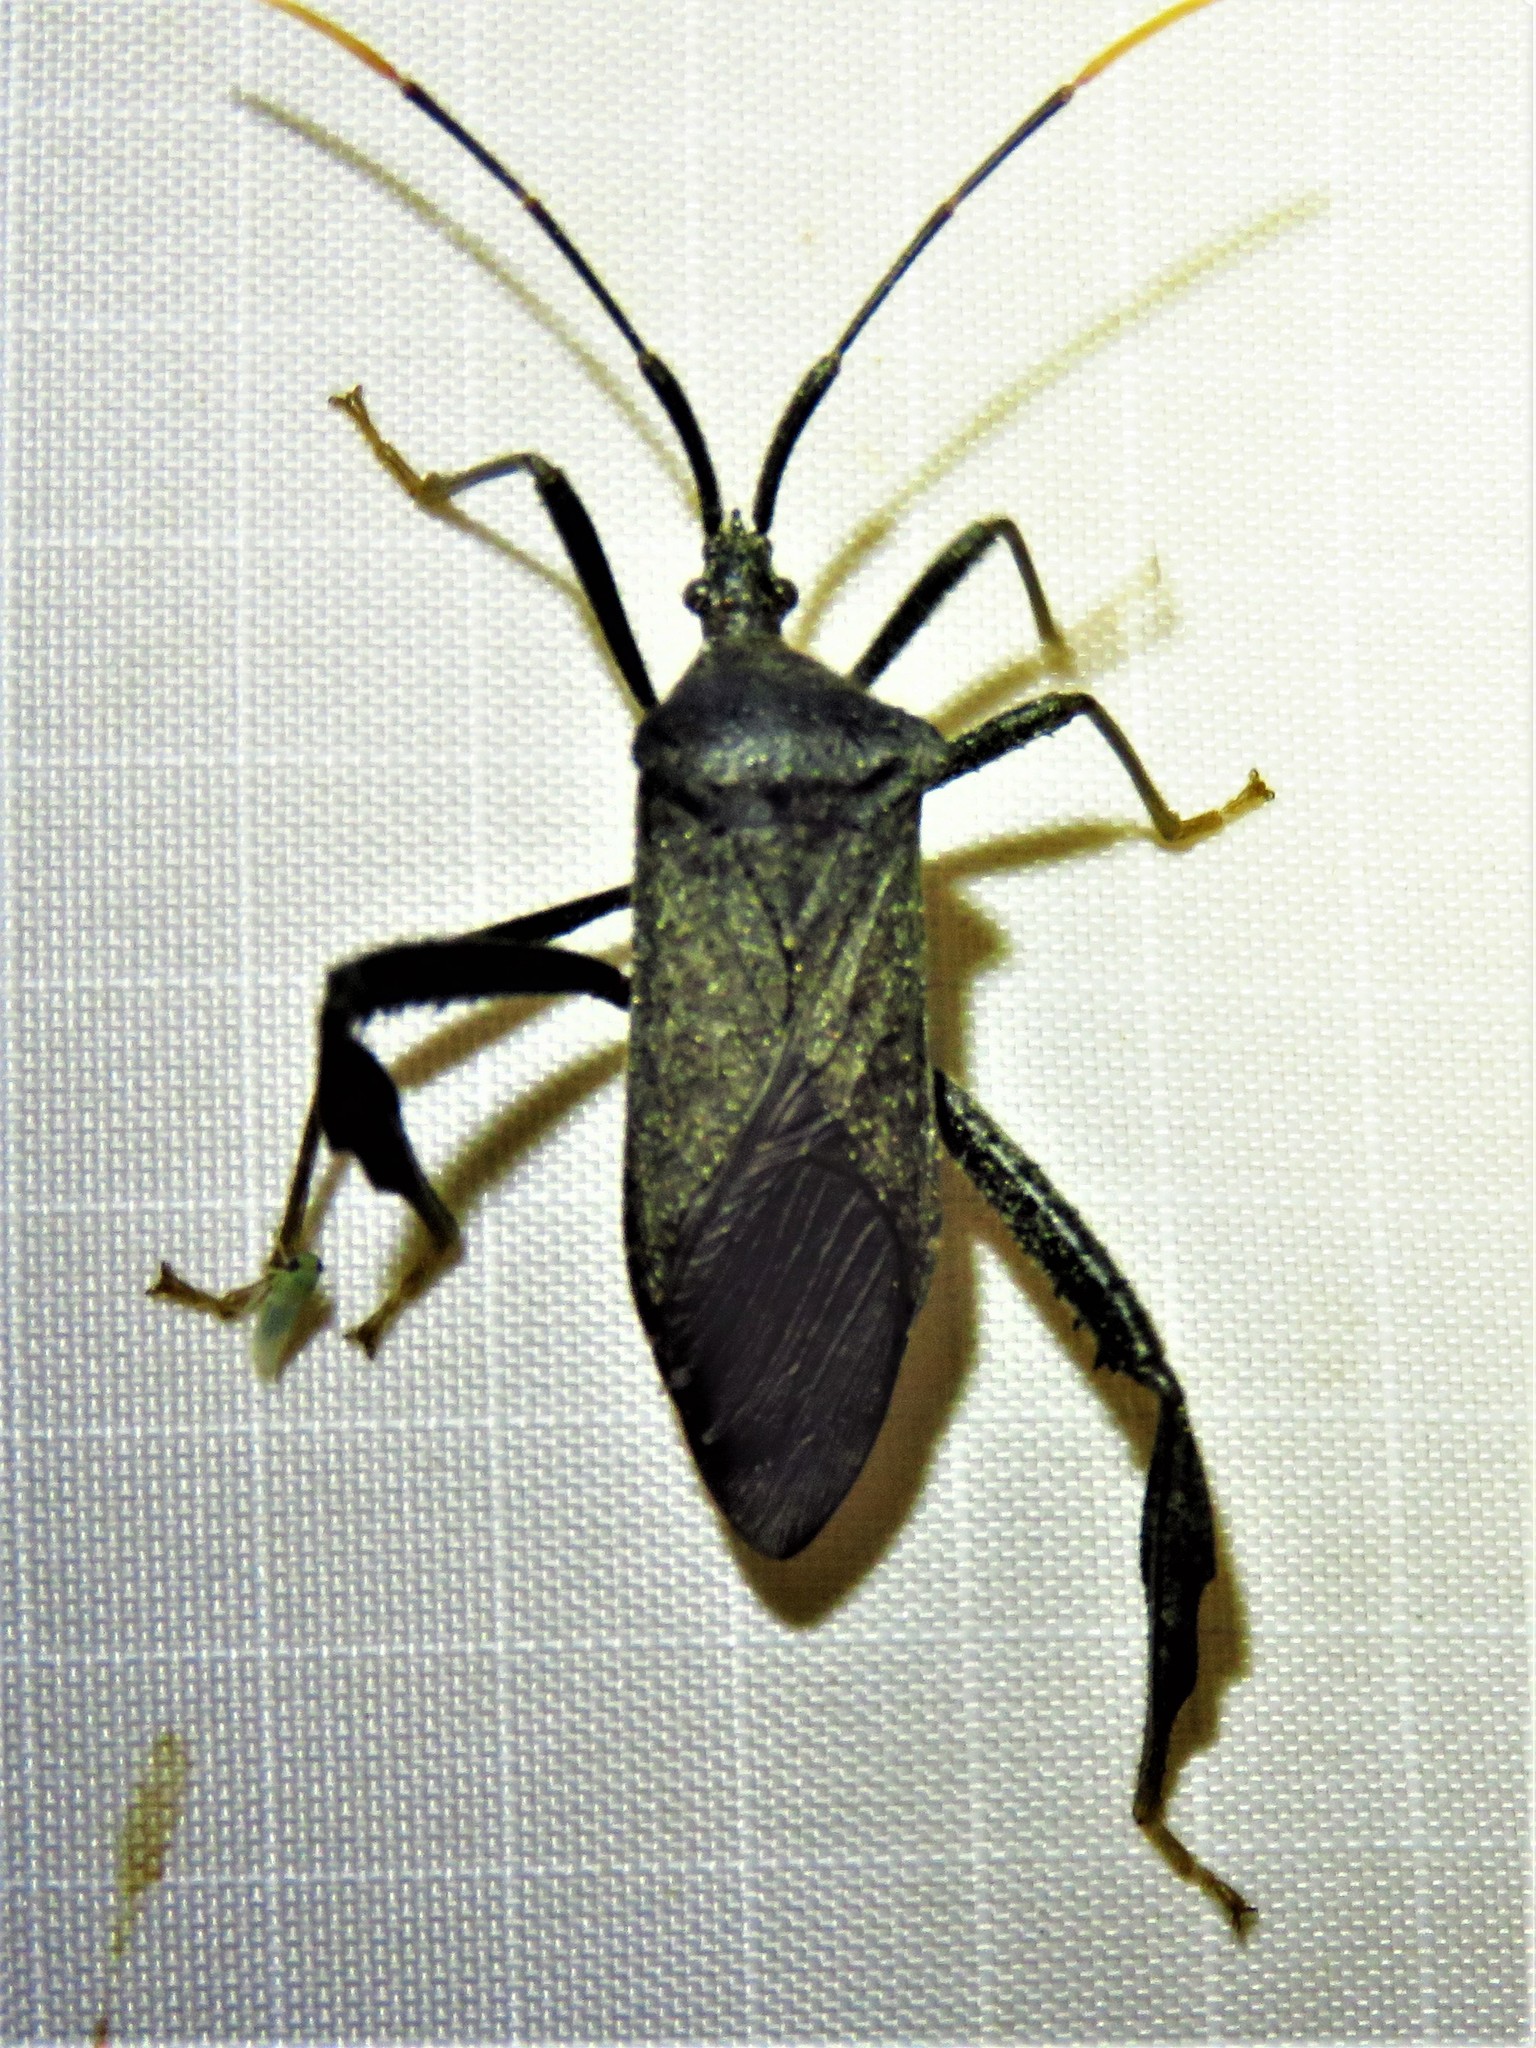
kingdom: Animalia
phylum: Arthropoda
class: Insecta
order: Hemiptera
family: Coreidae
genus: Acanthocephala
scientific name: Acanthocephala terminalis
